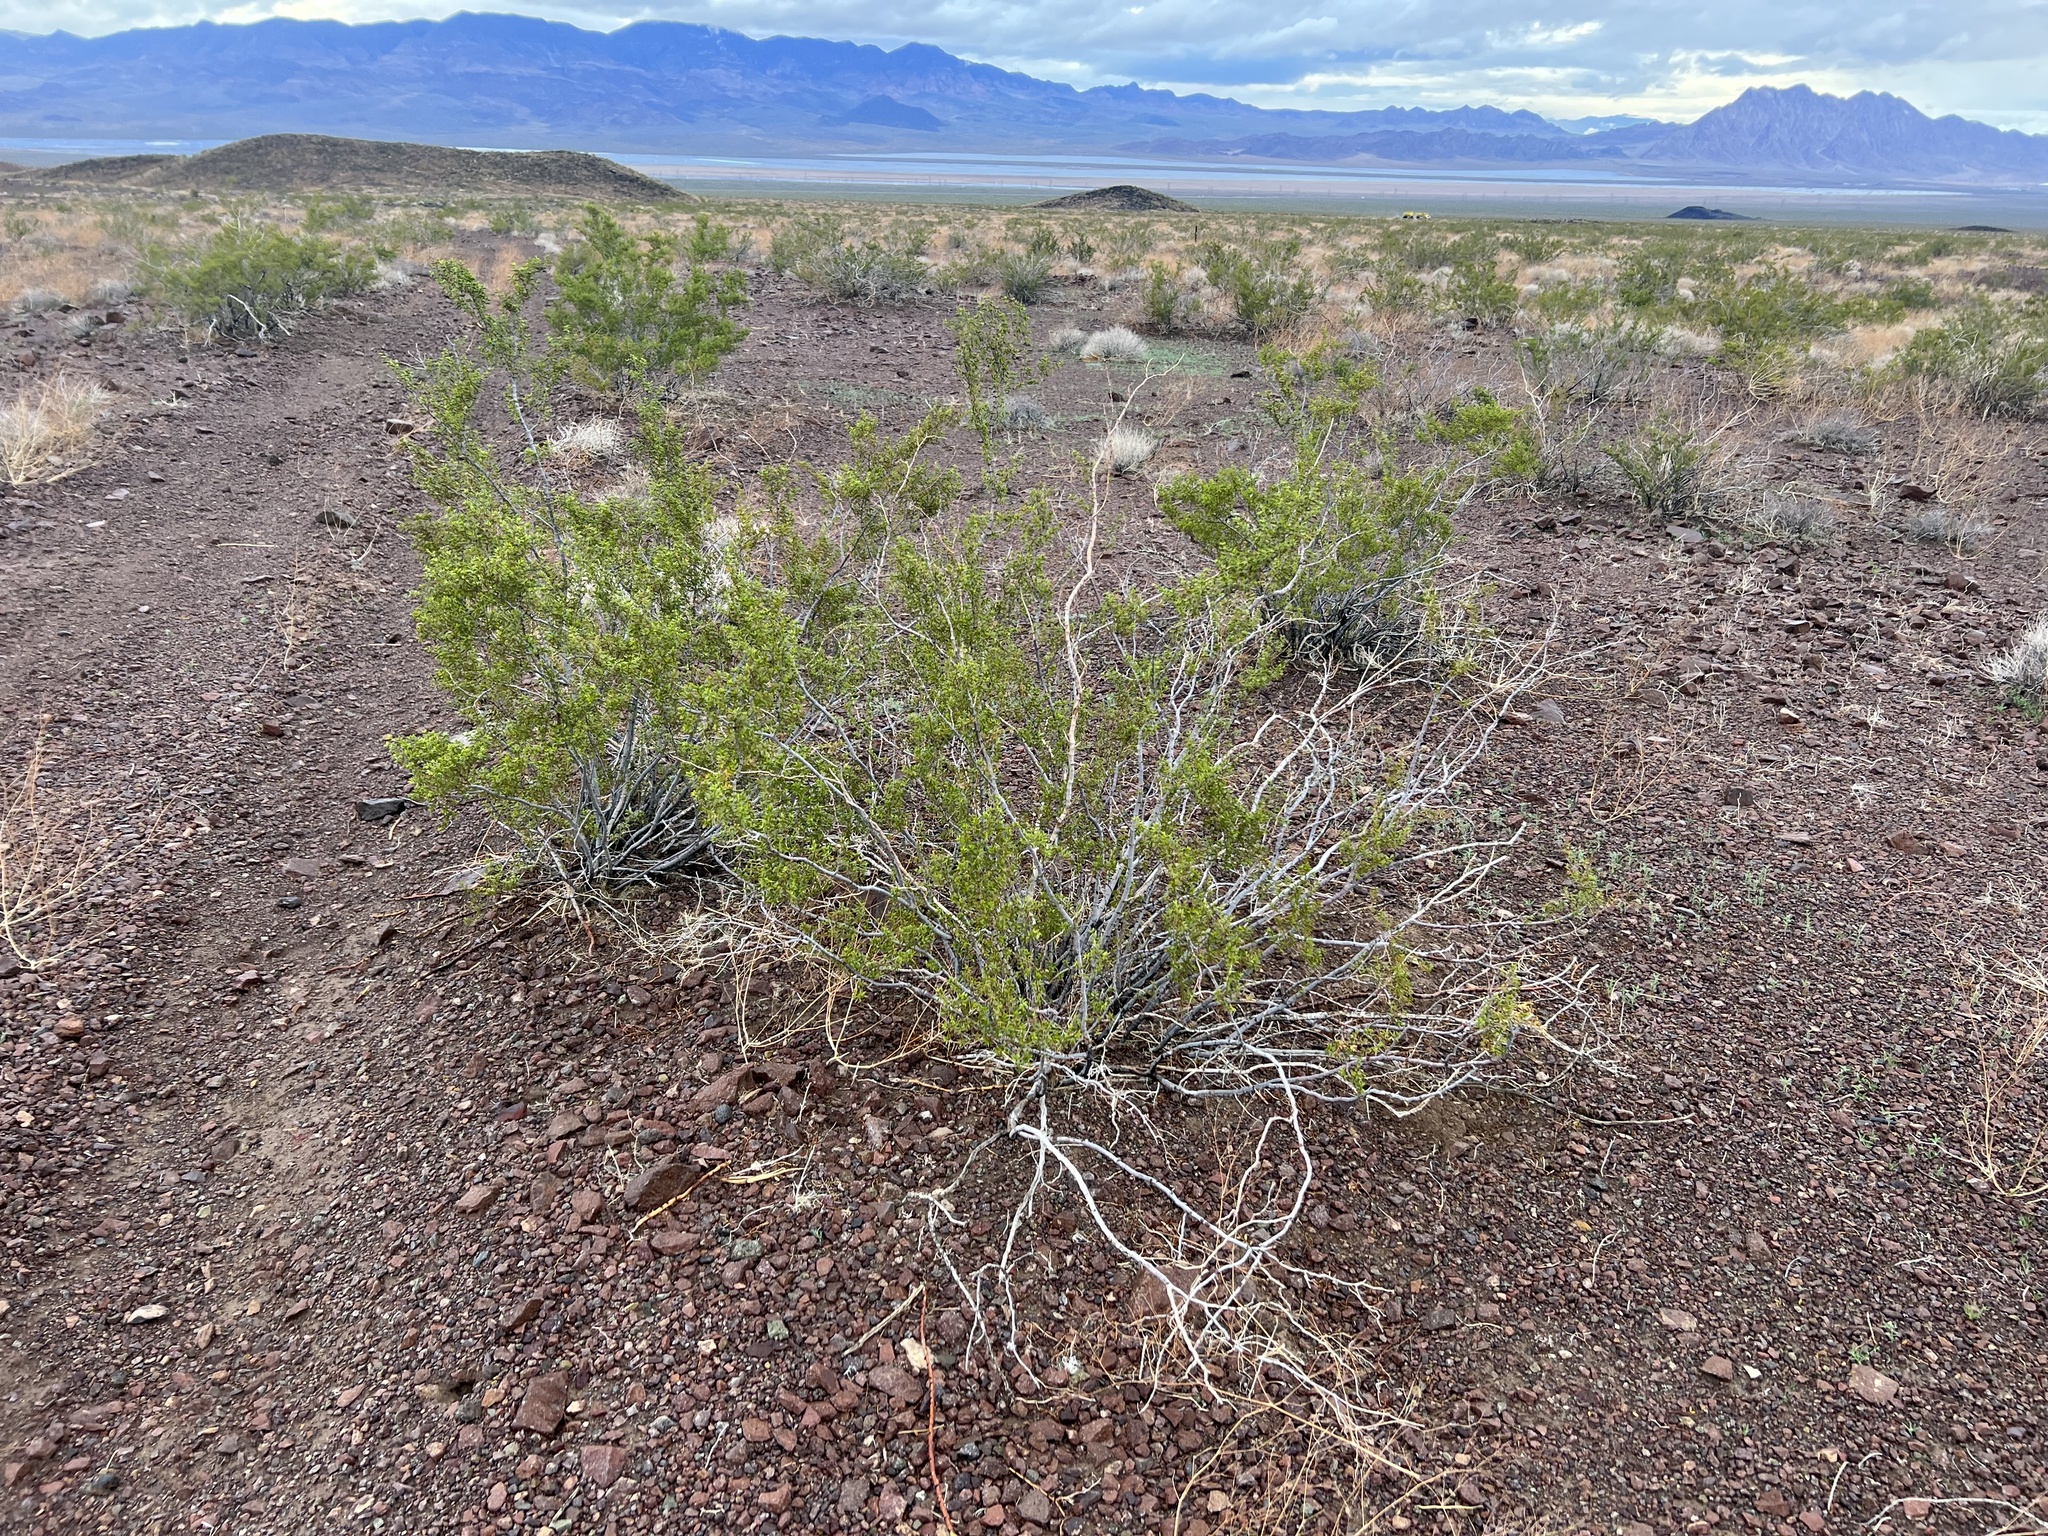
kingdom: Plantae
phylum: Tracheophyta
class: Magnoliopsida
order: Zygophyllales
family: Zygophyllaceae
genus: Larrea
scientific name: Larrea tridentata
